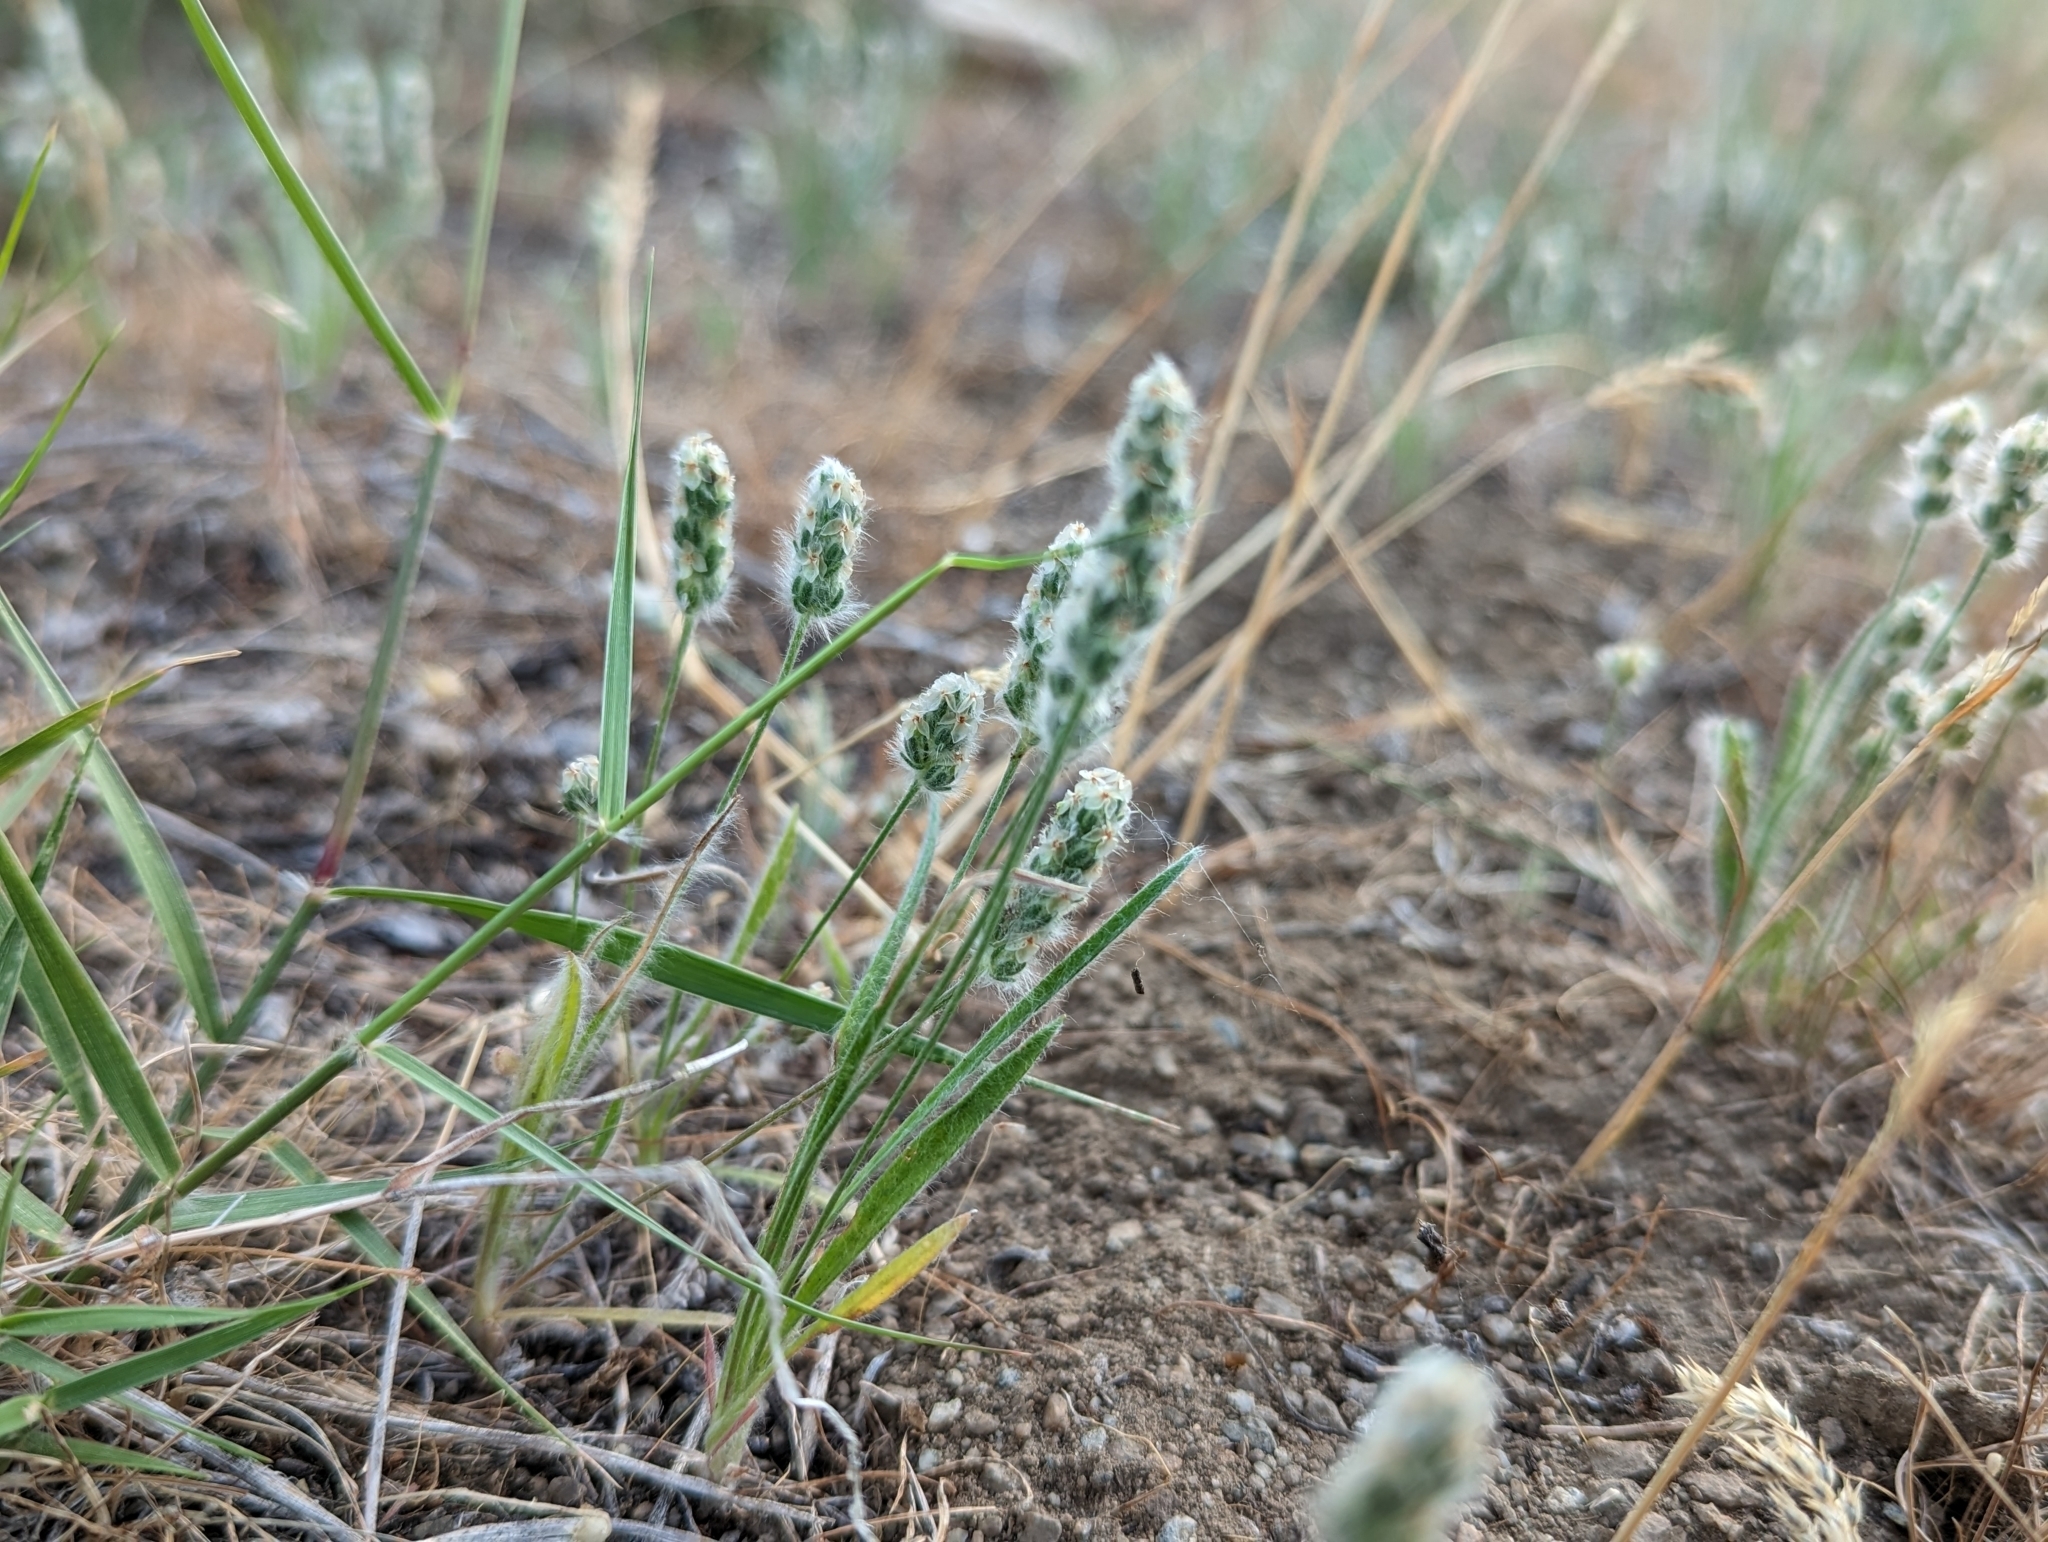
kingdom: Plantae
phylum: Tracheophyta
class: Magnoliopsida
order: Lamiales
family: Plantaginaceae
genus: Plantago
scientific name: Plantago patagonica
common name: Patagonia indian-wheat
